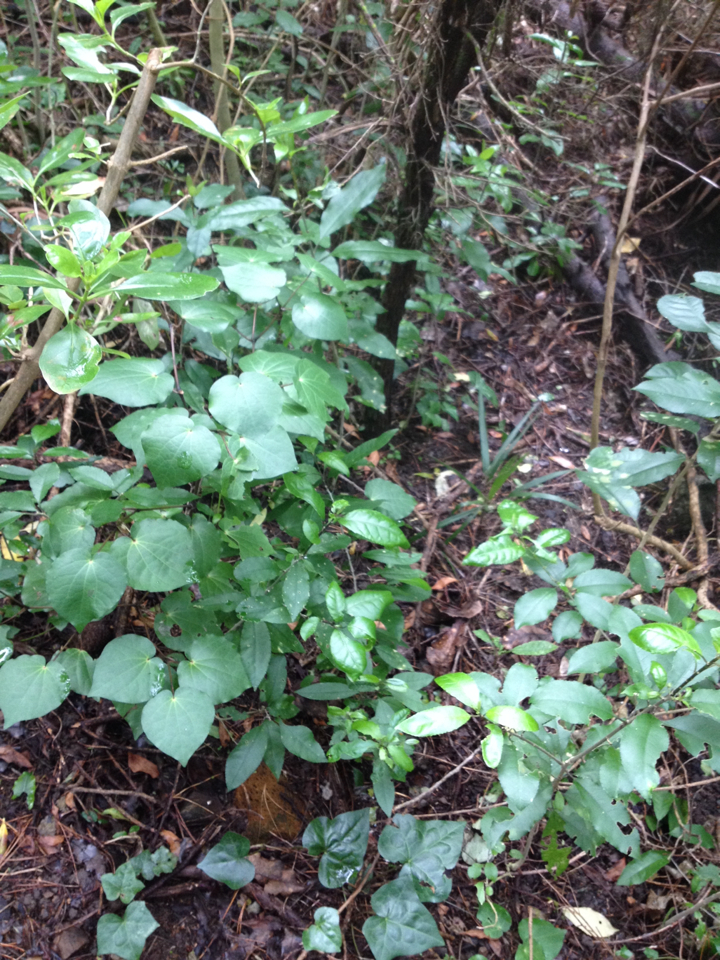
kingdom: Plantae
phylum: Tracheophyta
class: Liliopsida
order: Arecales
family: Arecaceae
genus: Rhopalostylis
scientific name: Rhopalostylis sapida
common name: Feather-duster palm
